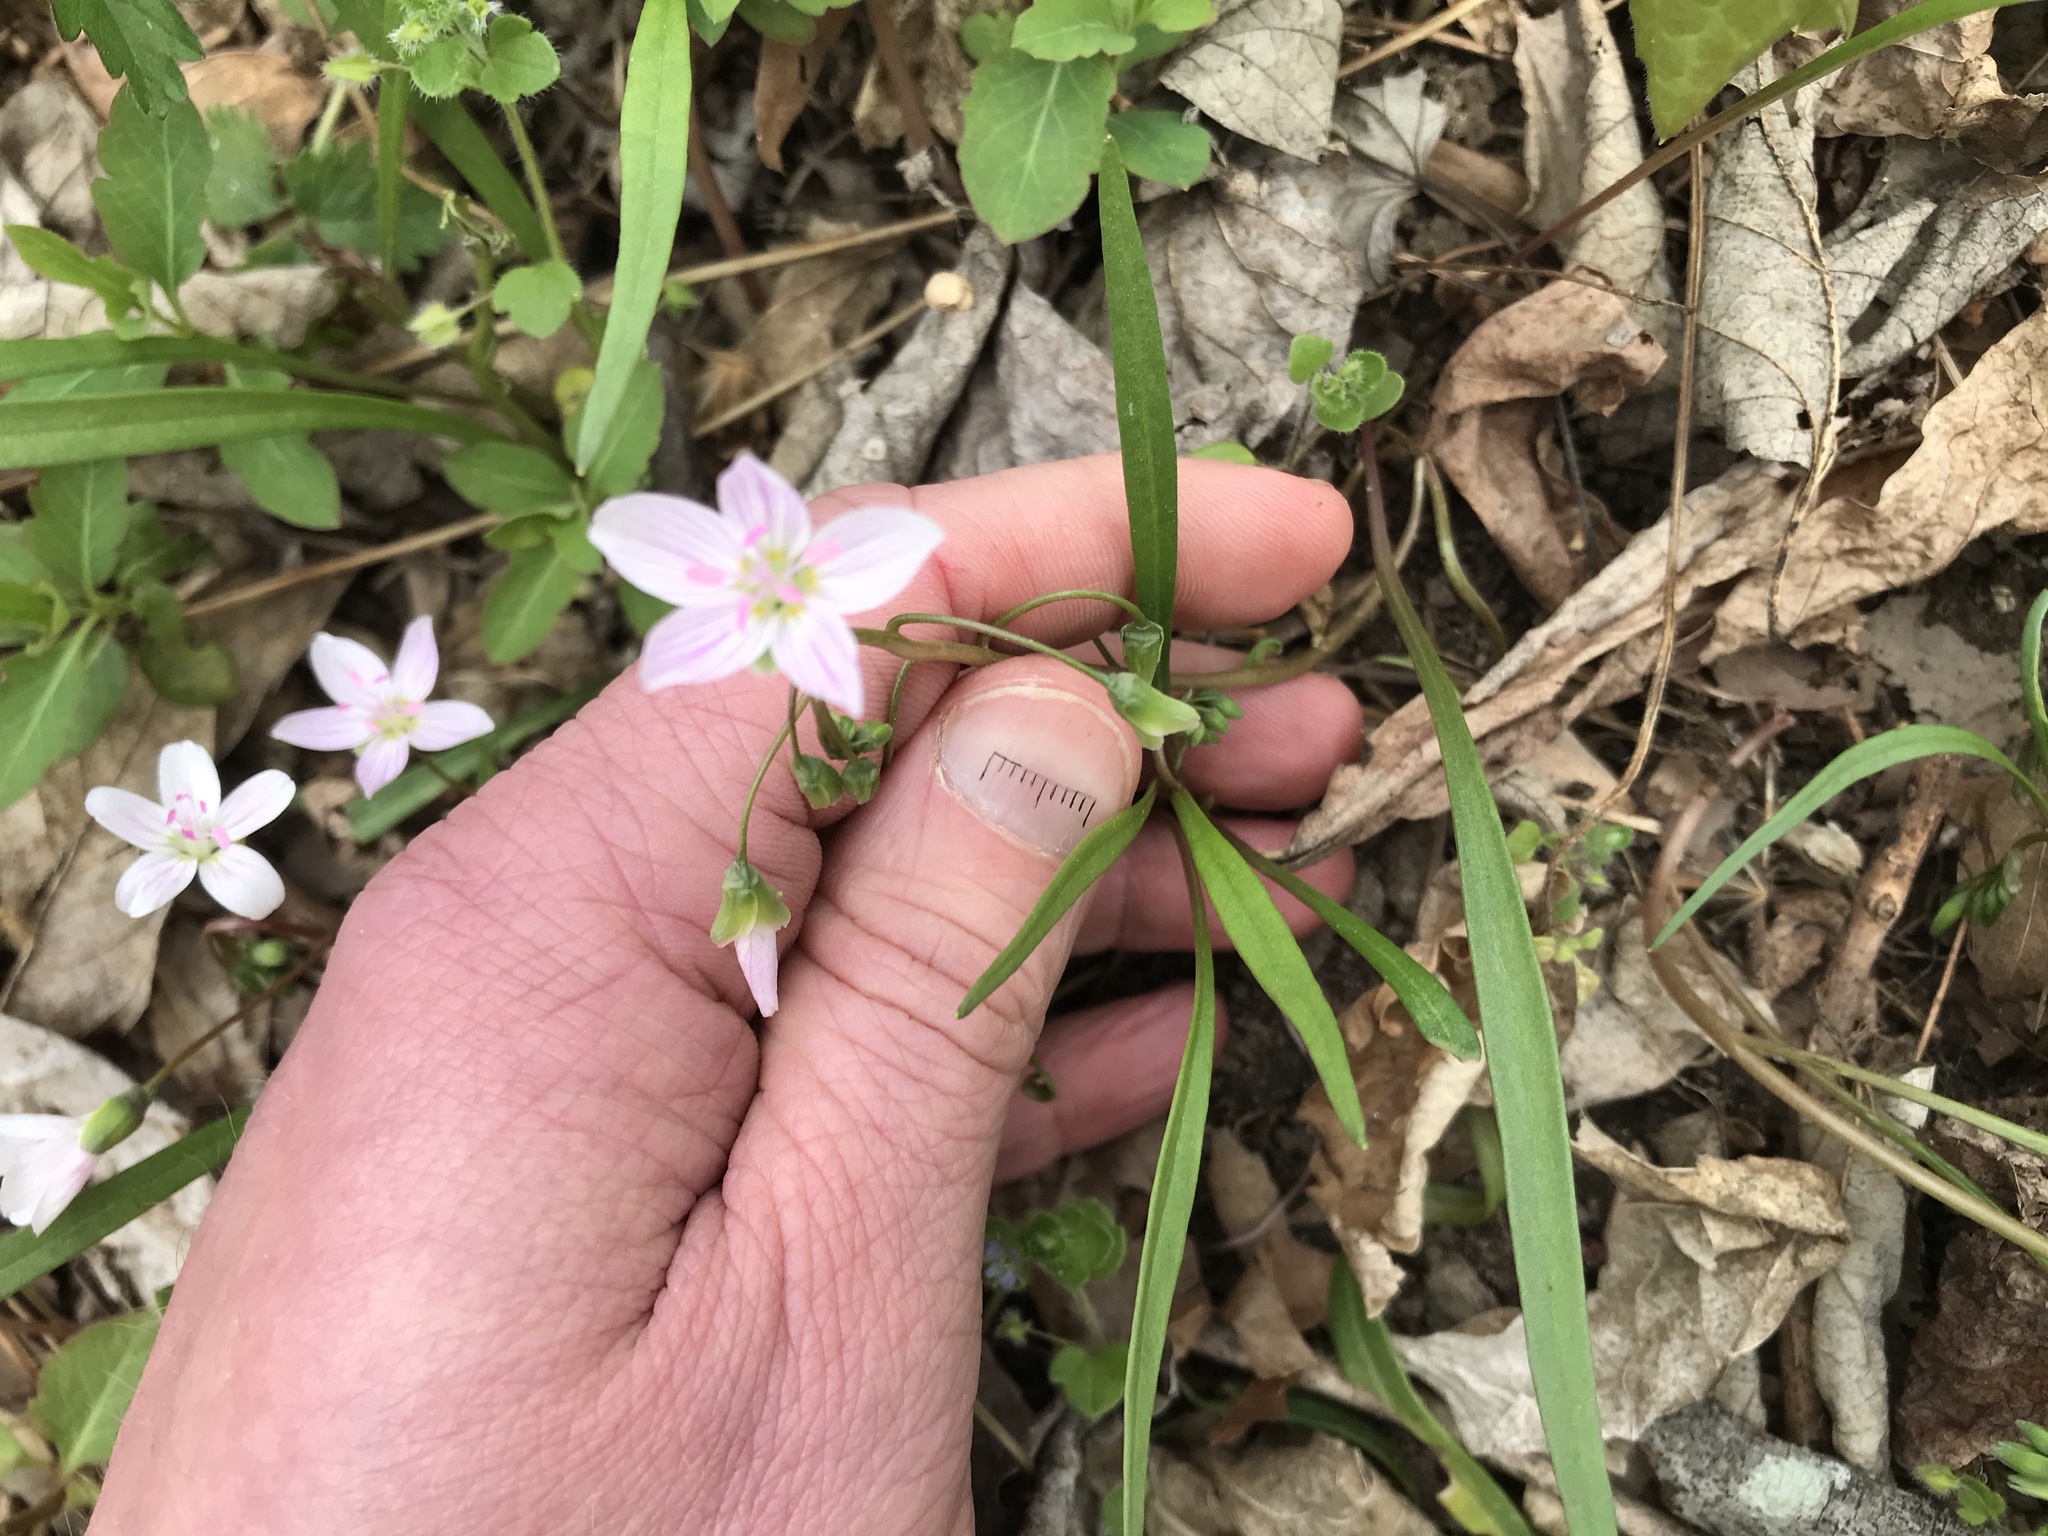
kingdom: Plantae
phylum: Tracheophyta
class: Magnoliopsida
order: Caryophyllales
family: Montiaceae
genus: Claytonia
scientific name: Claytonia virginica
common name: Virginia springbeauty
